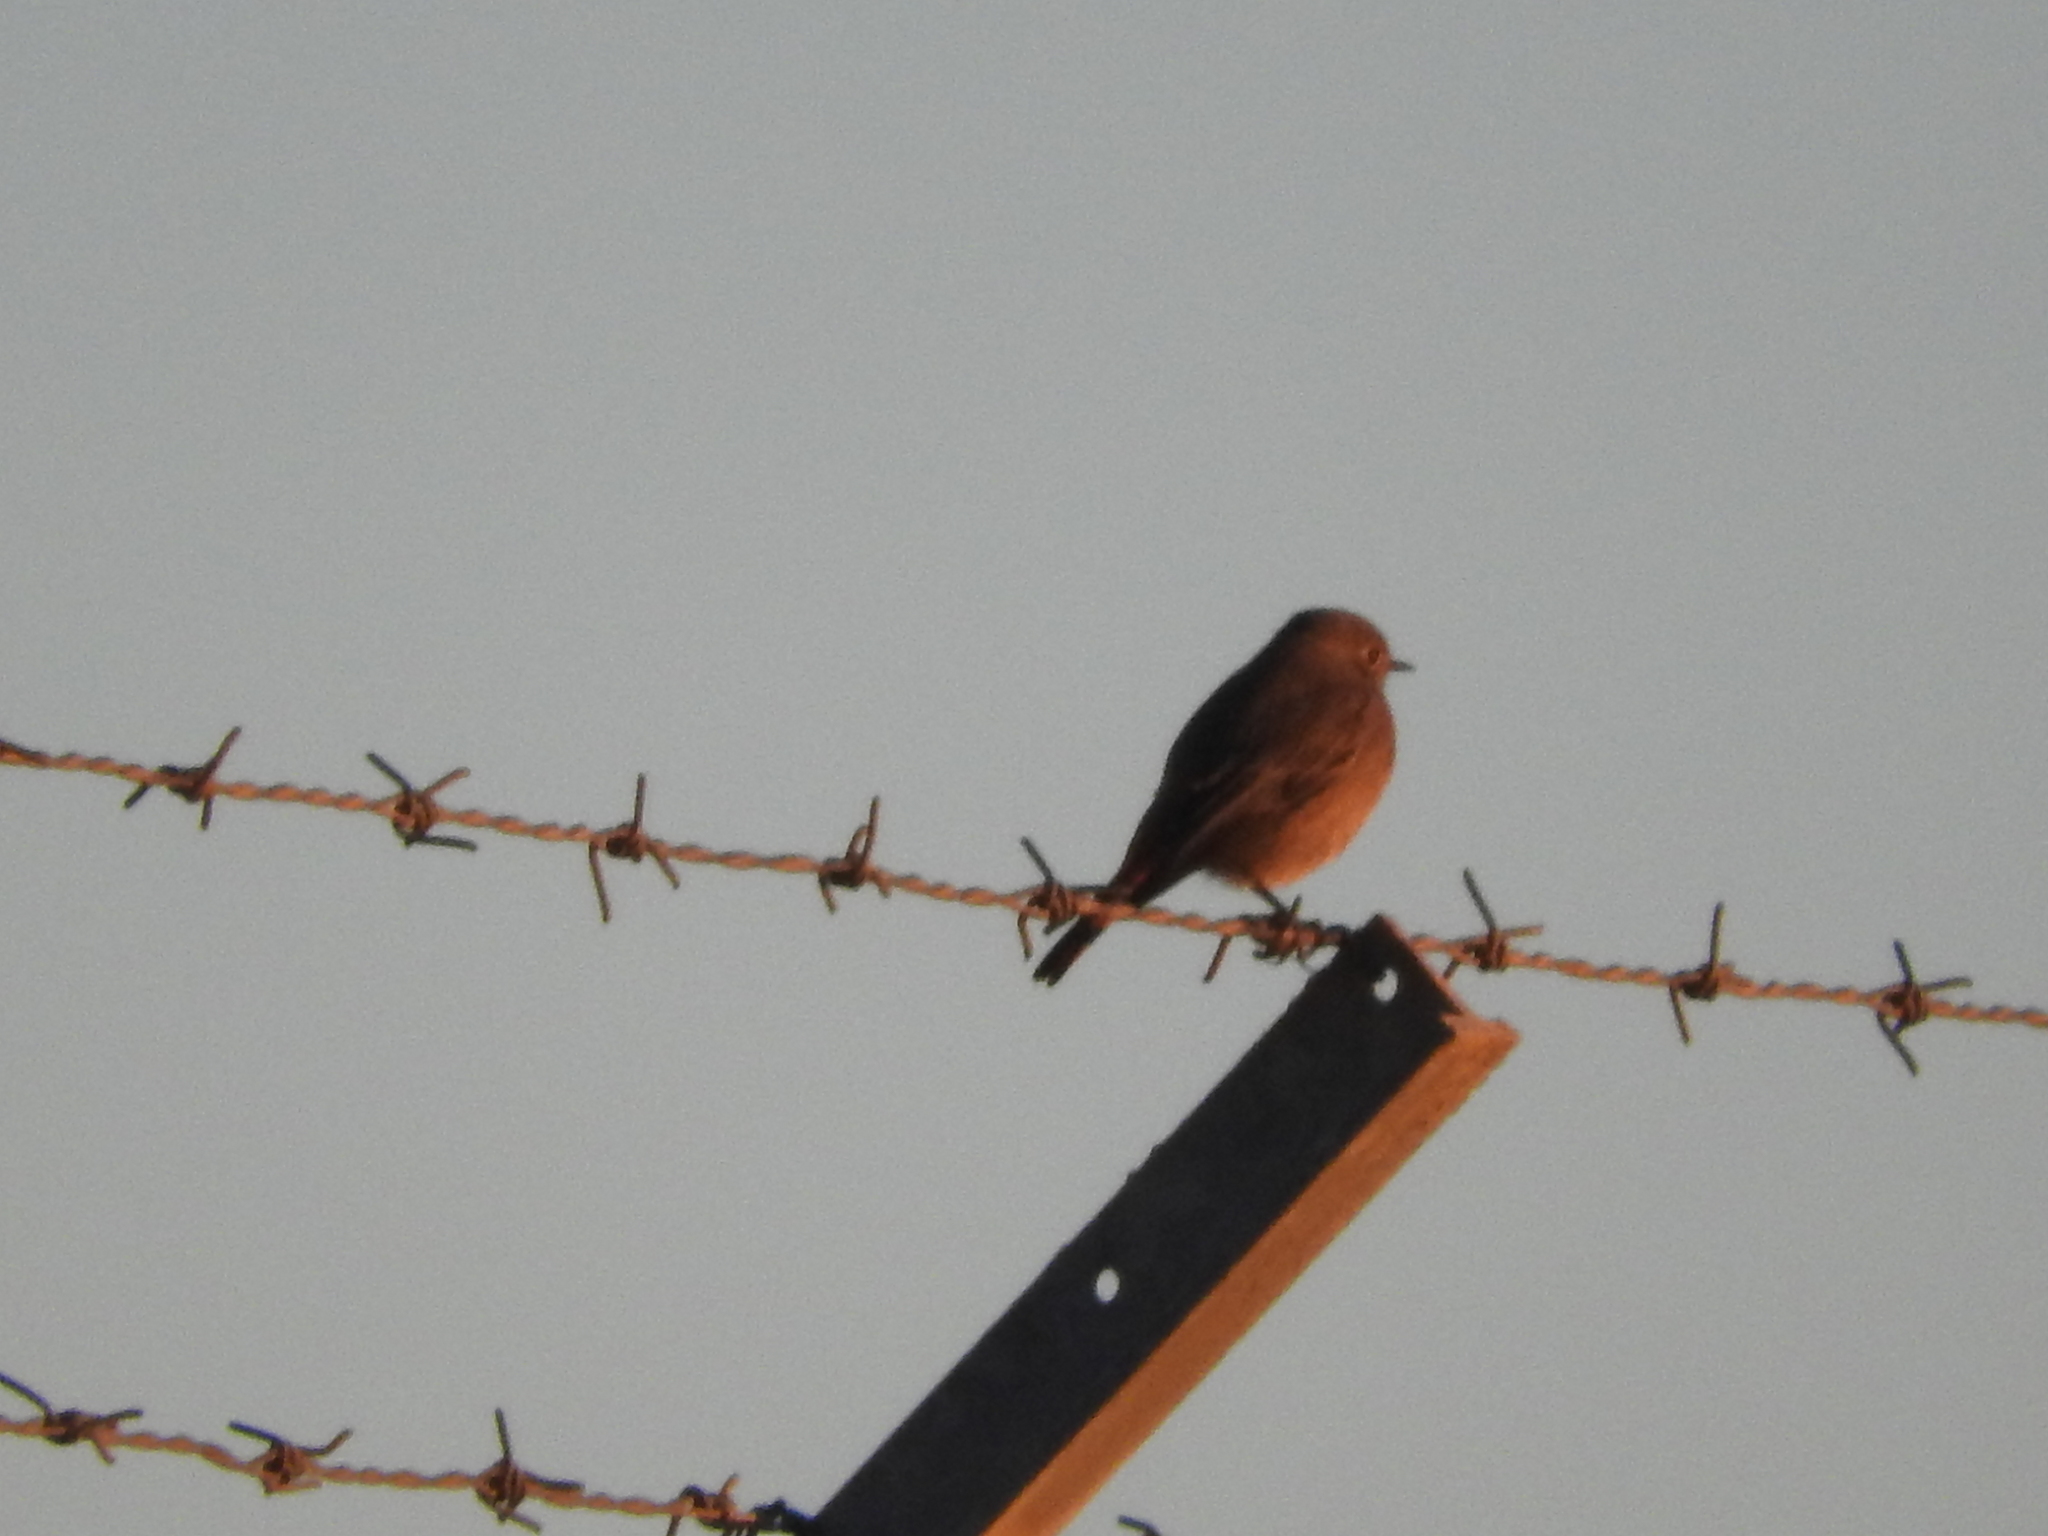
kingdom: Animalia
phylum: Chordata
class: Aves
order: Passeriformes
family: Muscicapidae
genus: Phoenicurus
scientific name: Phoenicurus ochruros
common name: Black redstart
